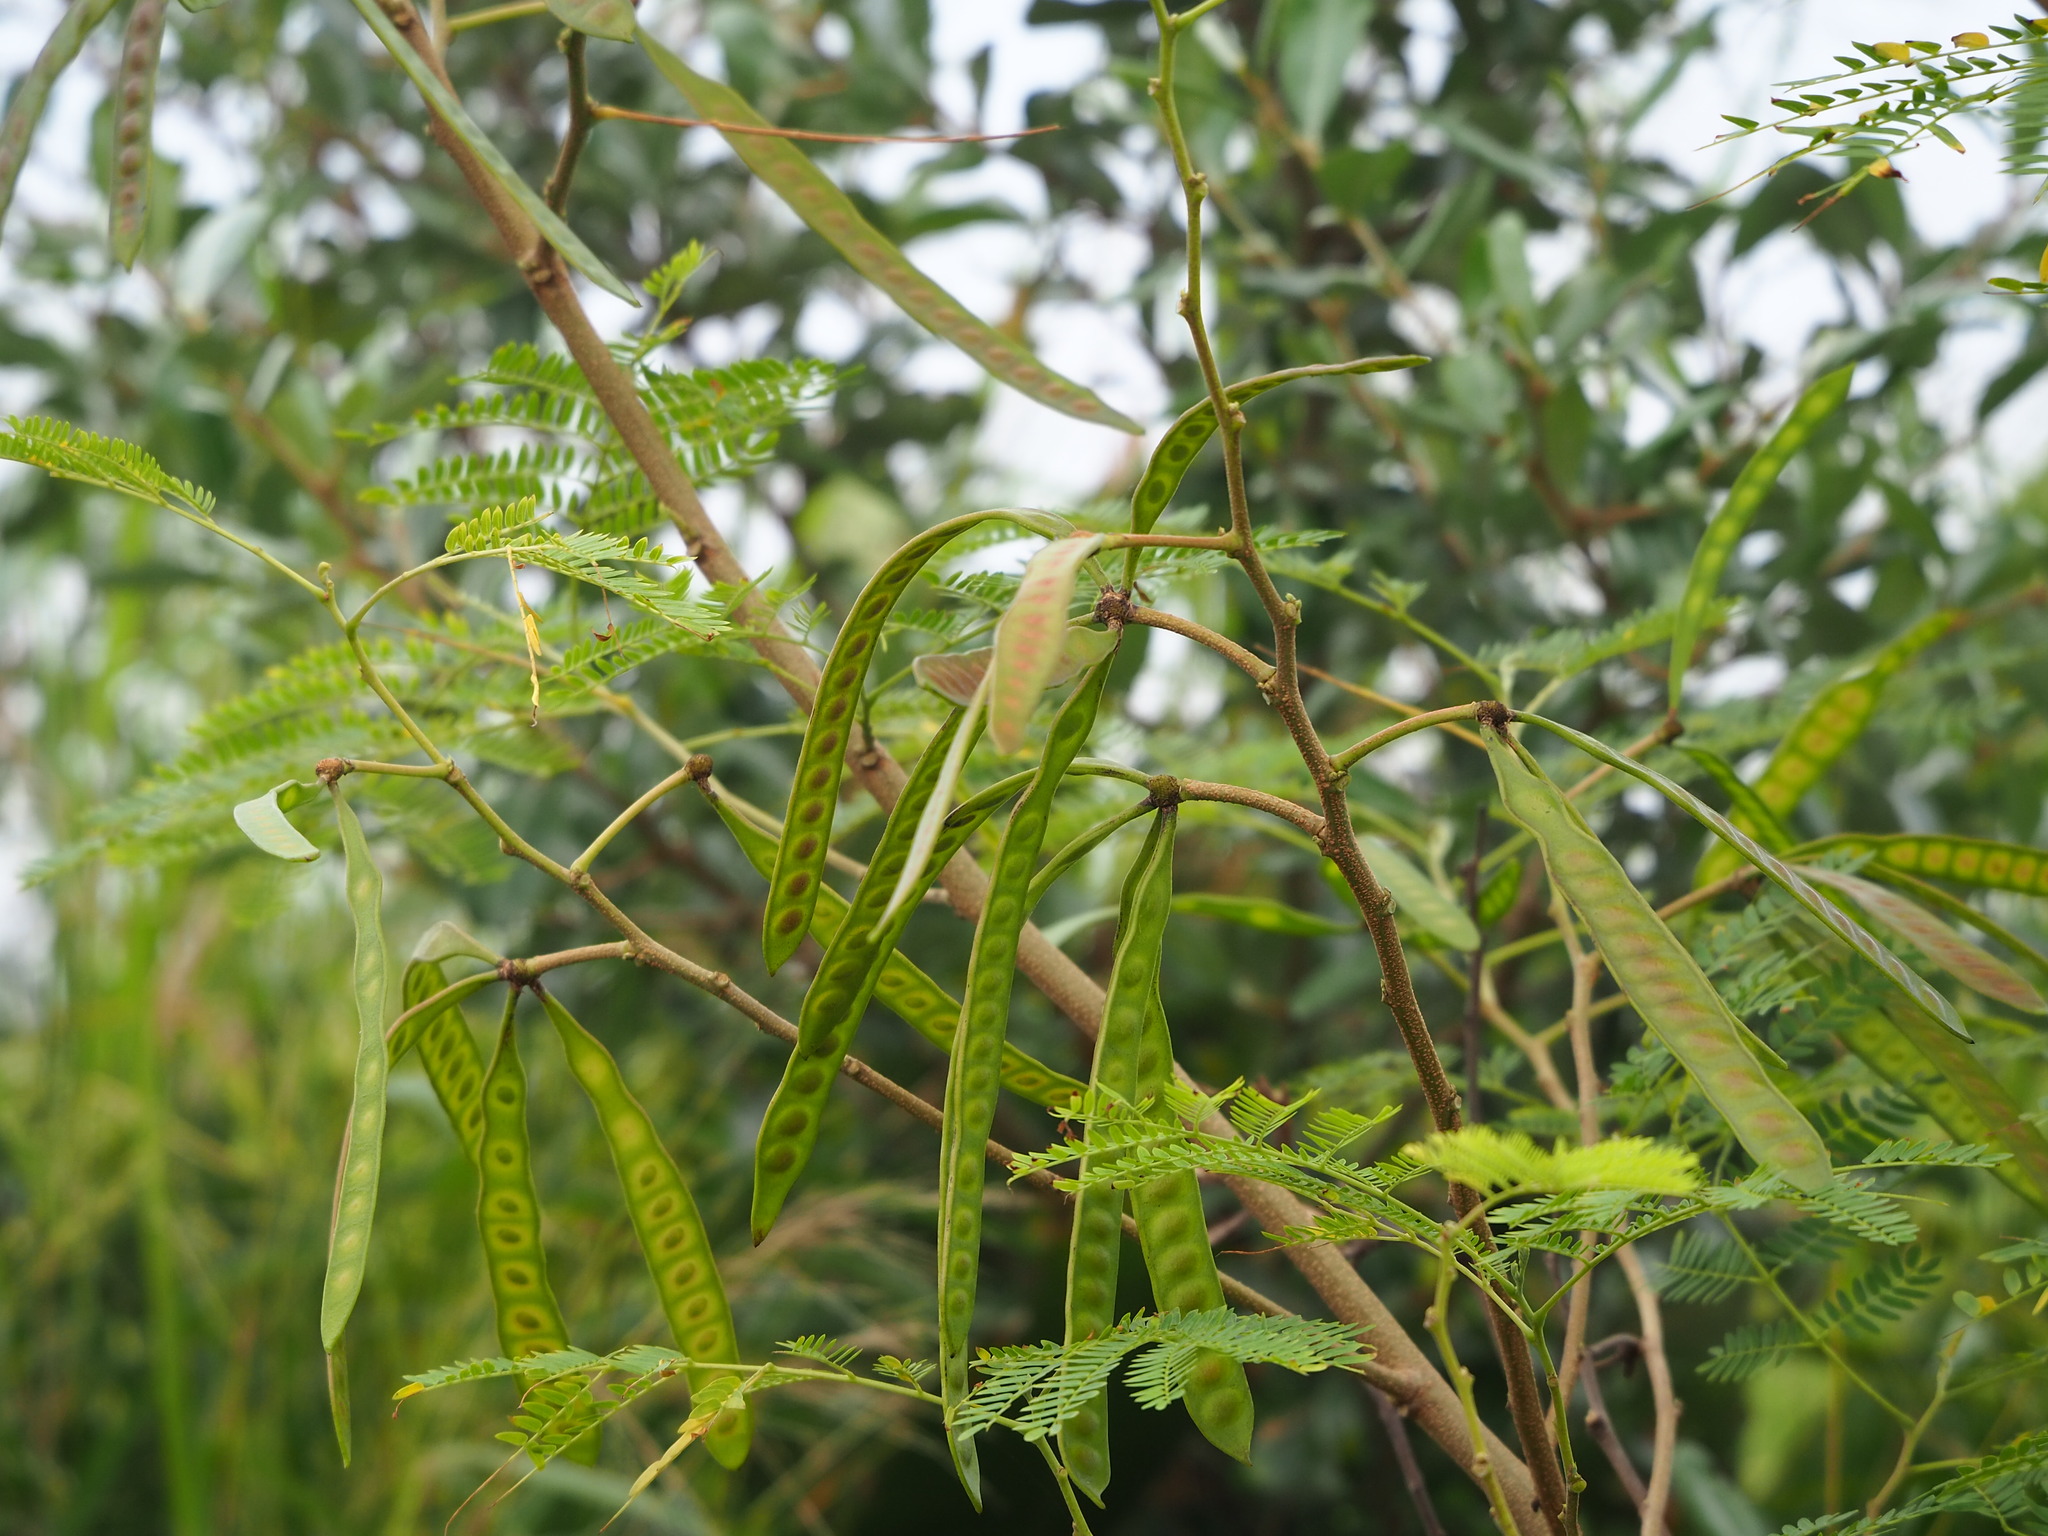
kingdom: Plantae
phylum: Tracheophyta
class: Magnoliopsida
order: Fabales
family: Fabaceae
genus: Leucaena
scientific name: Leucaena leucocephala
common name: White leadtree
